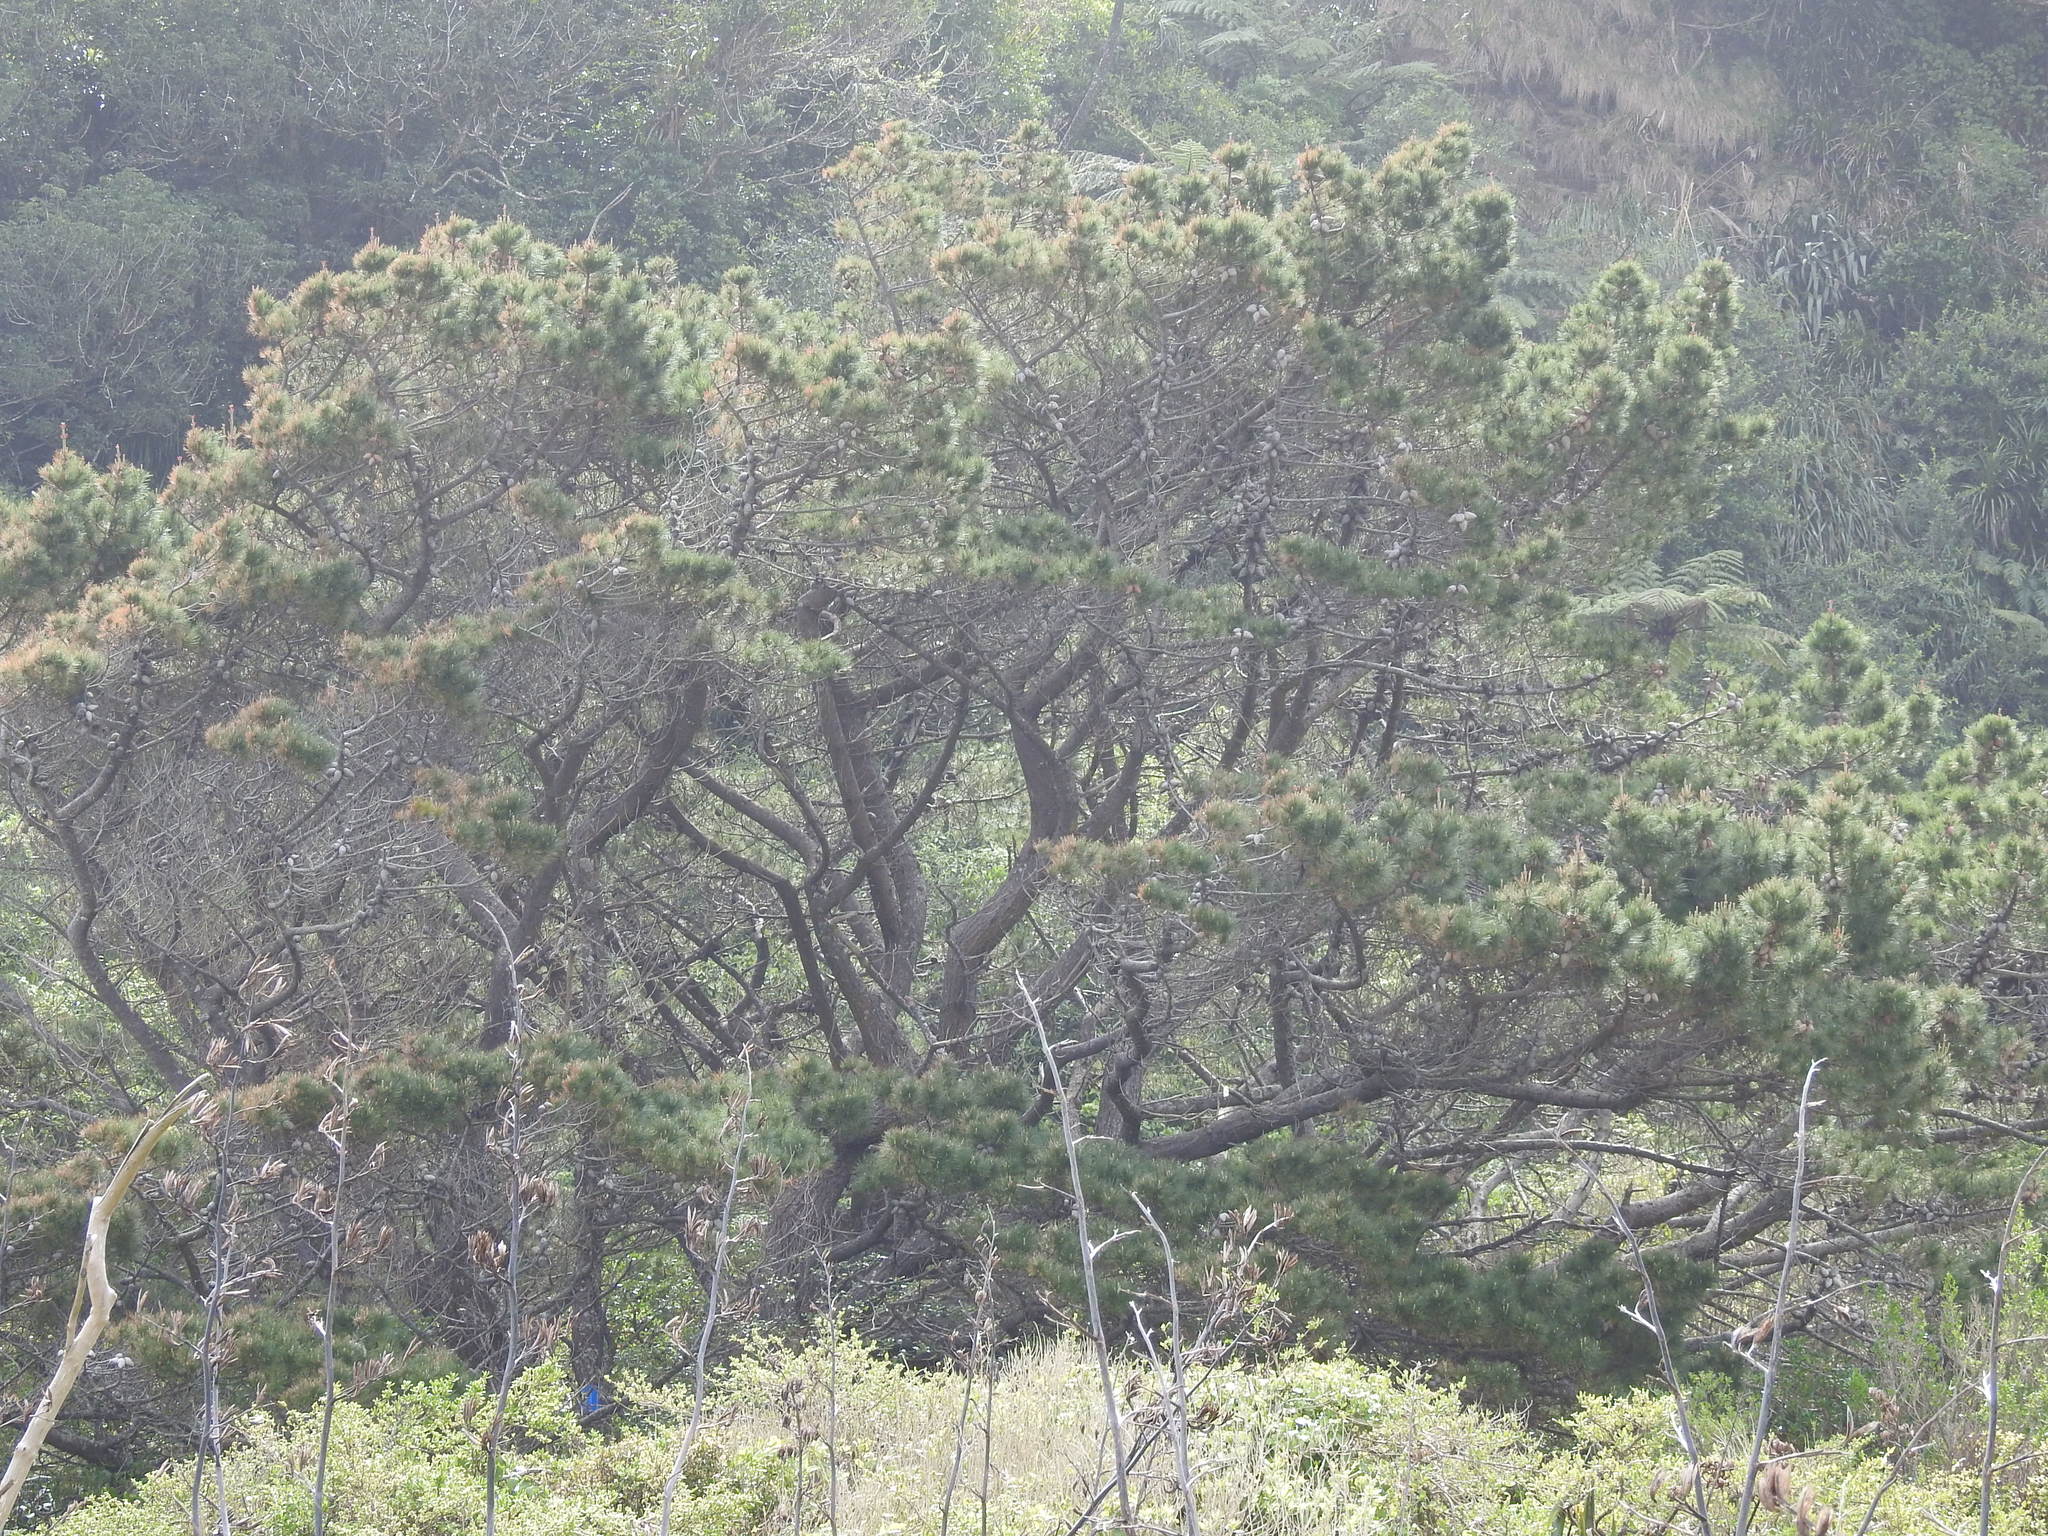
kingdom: Plantae
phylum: Tracheophyta
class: Pinopsida
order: Pinales
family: Pinaceae
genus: Pinus
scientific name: Pinus radiata
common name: Monterey pine
